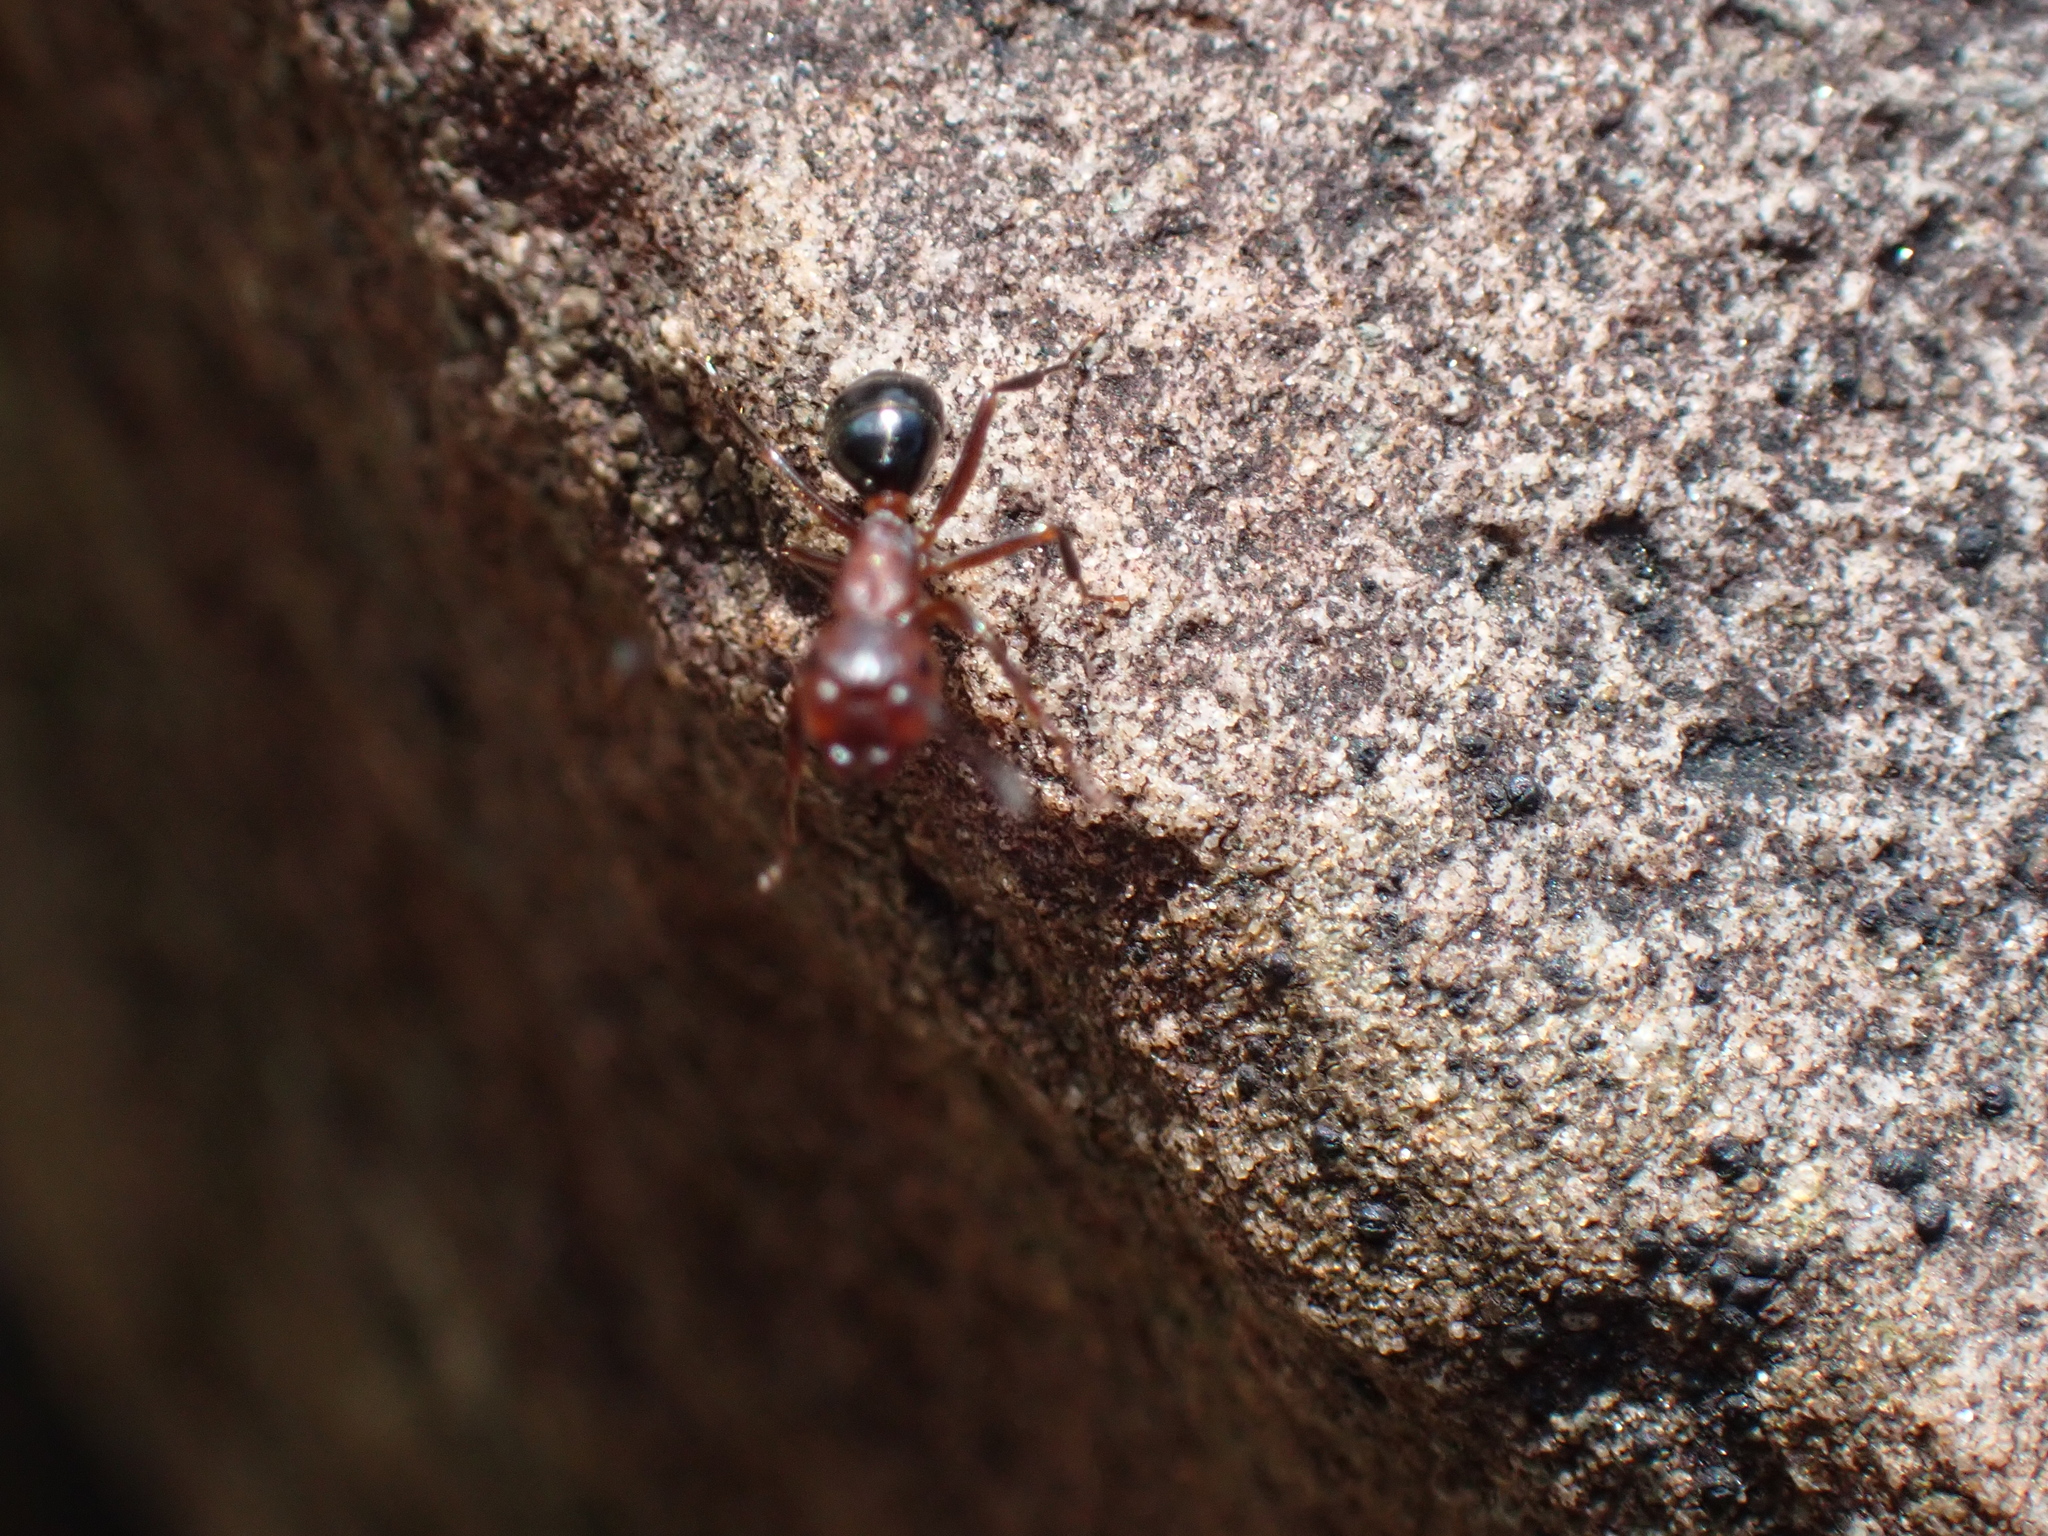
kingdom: Animalia
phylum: Arthropoda
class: Insecta
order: Hymenoptera
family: Formicidae
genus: Camponotus
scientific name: Camponotus decipiens
